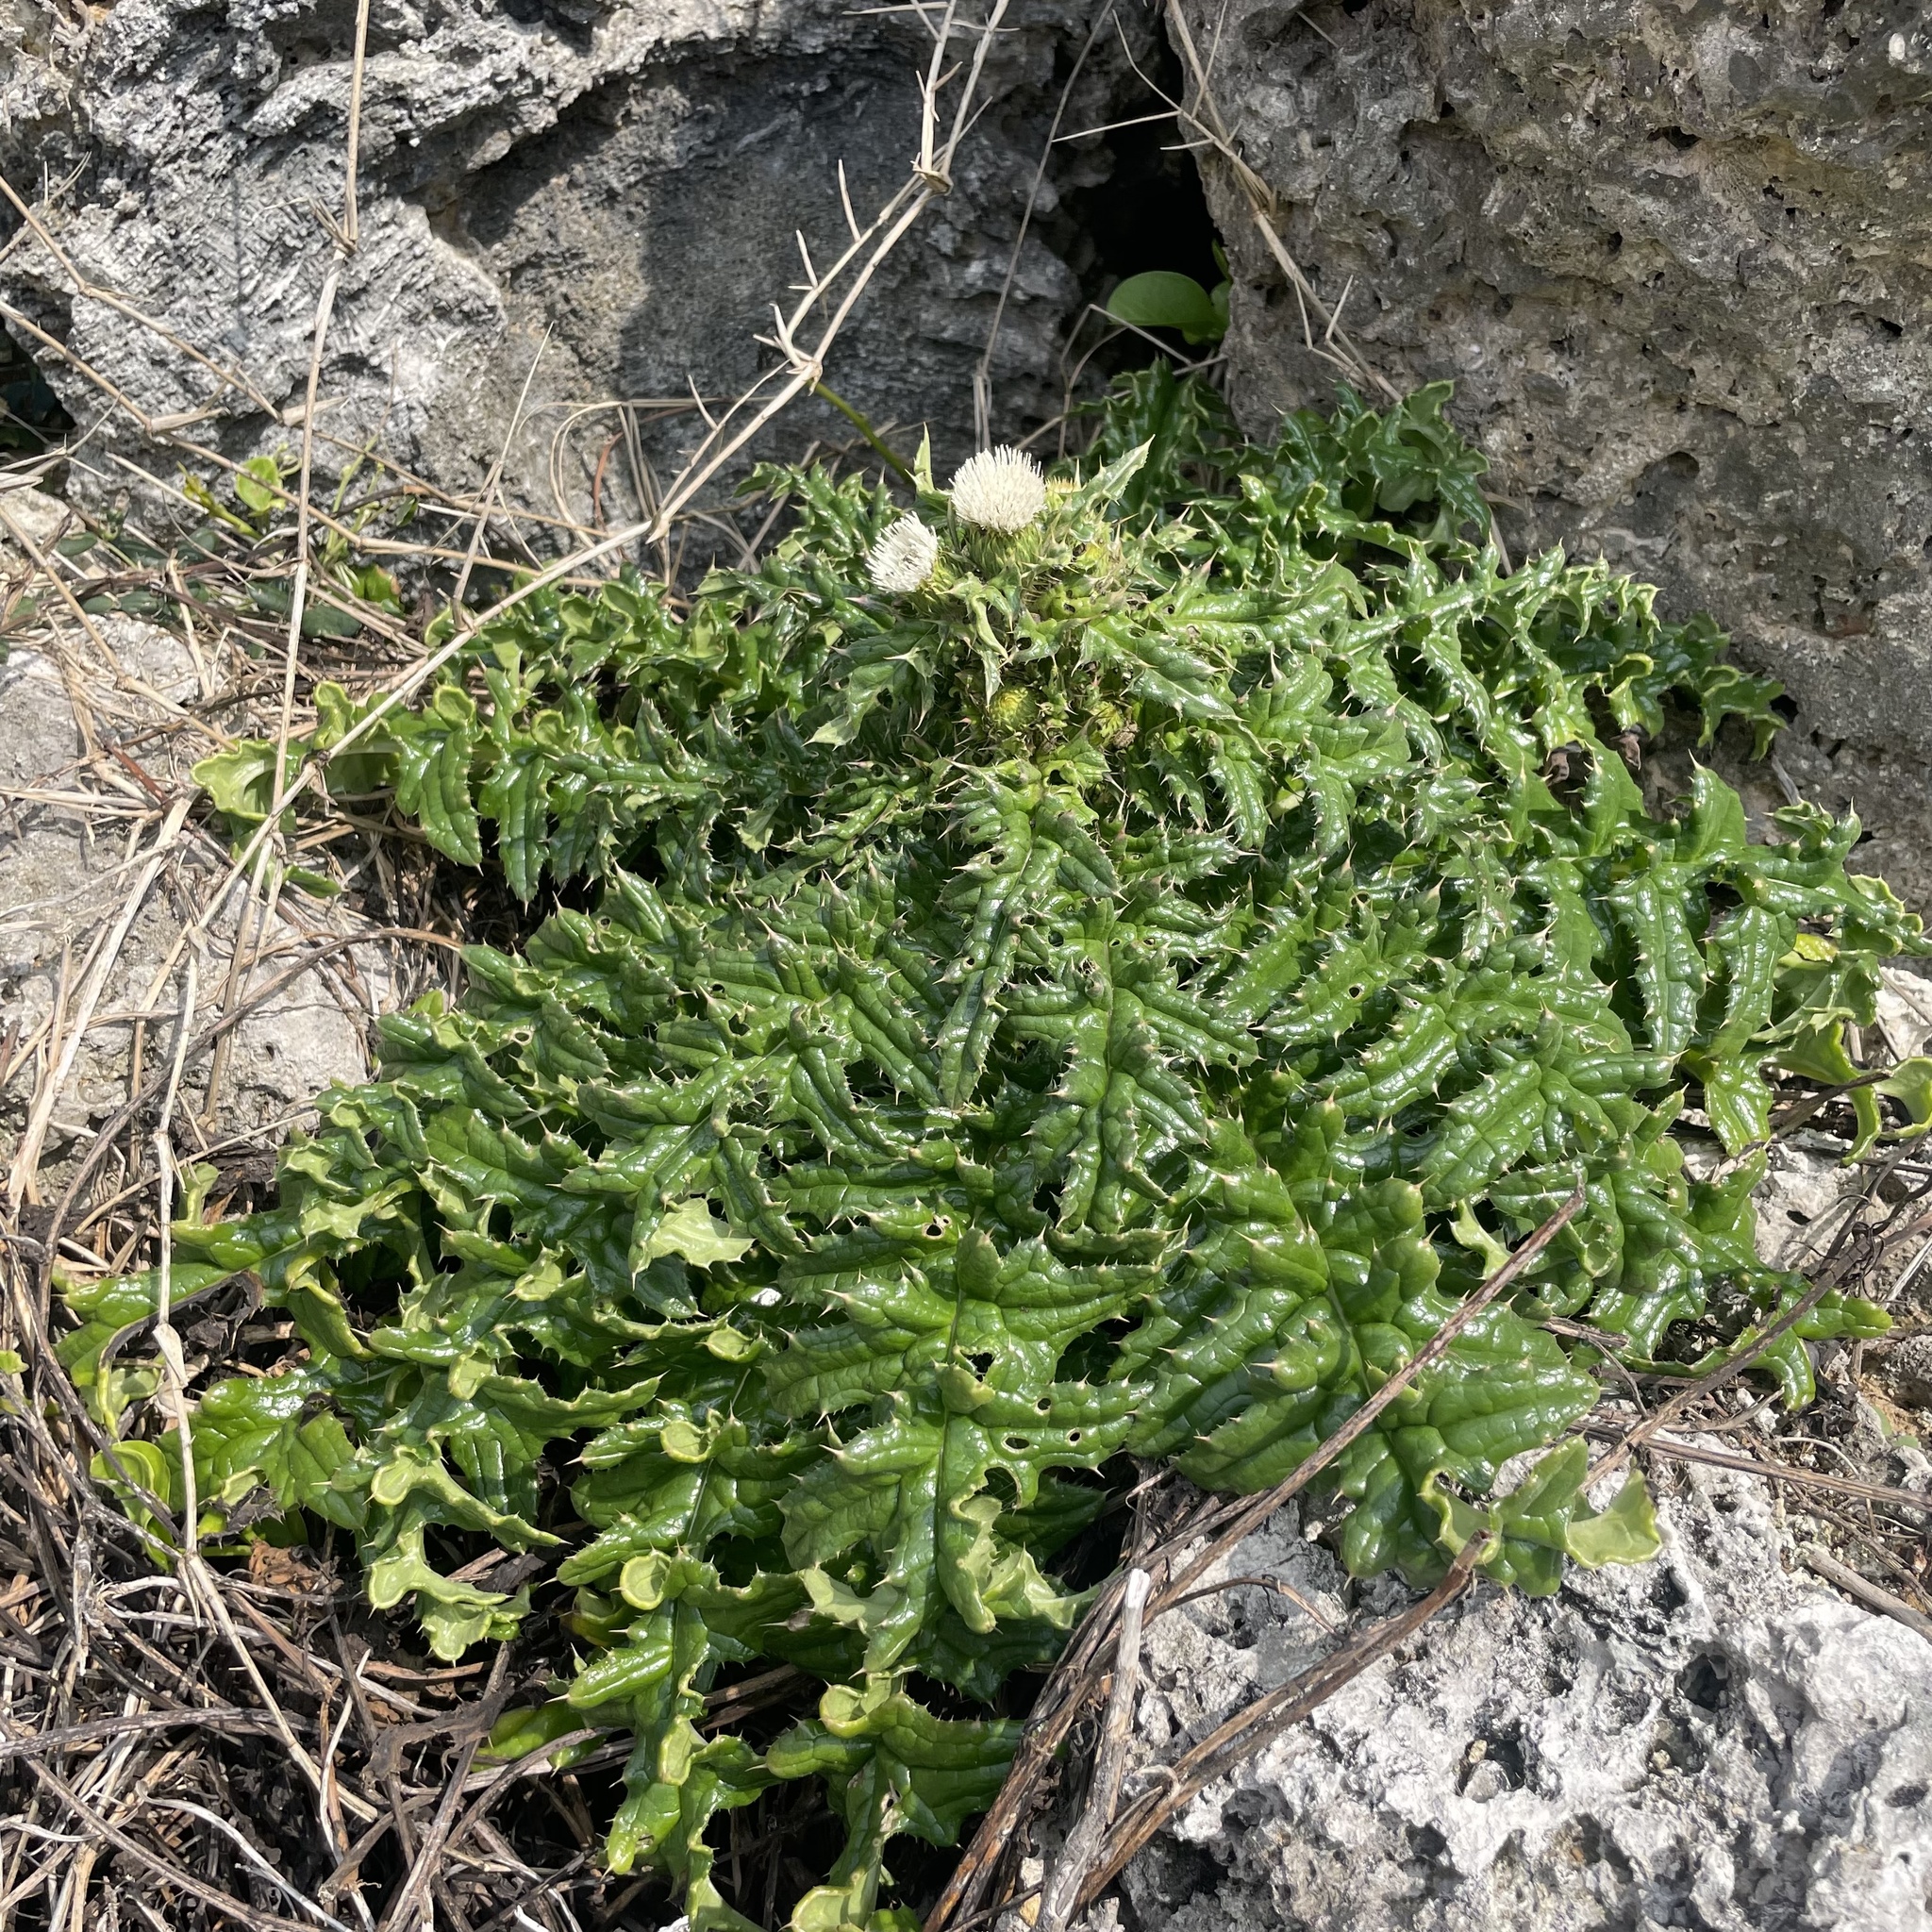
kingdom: Plantae
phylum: Tracheophyta
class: Magnoliopsida
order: Asterales
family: Asteraceae
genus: Cirsium
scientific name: Cirsium brevicaule
